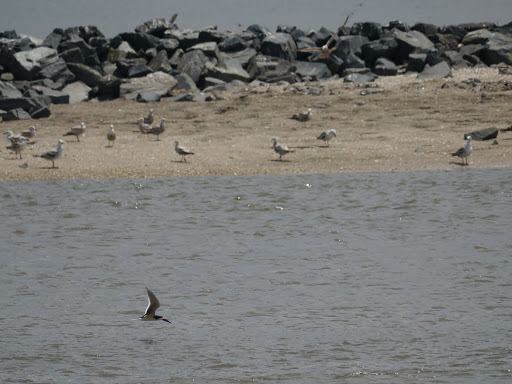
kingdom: Animalia
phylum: Chordata
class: Aves
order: Charadriiformes
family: Laridae
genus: Rynchops
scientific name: Rynchops niger
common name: Black skimmer
